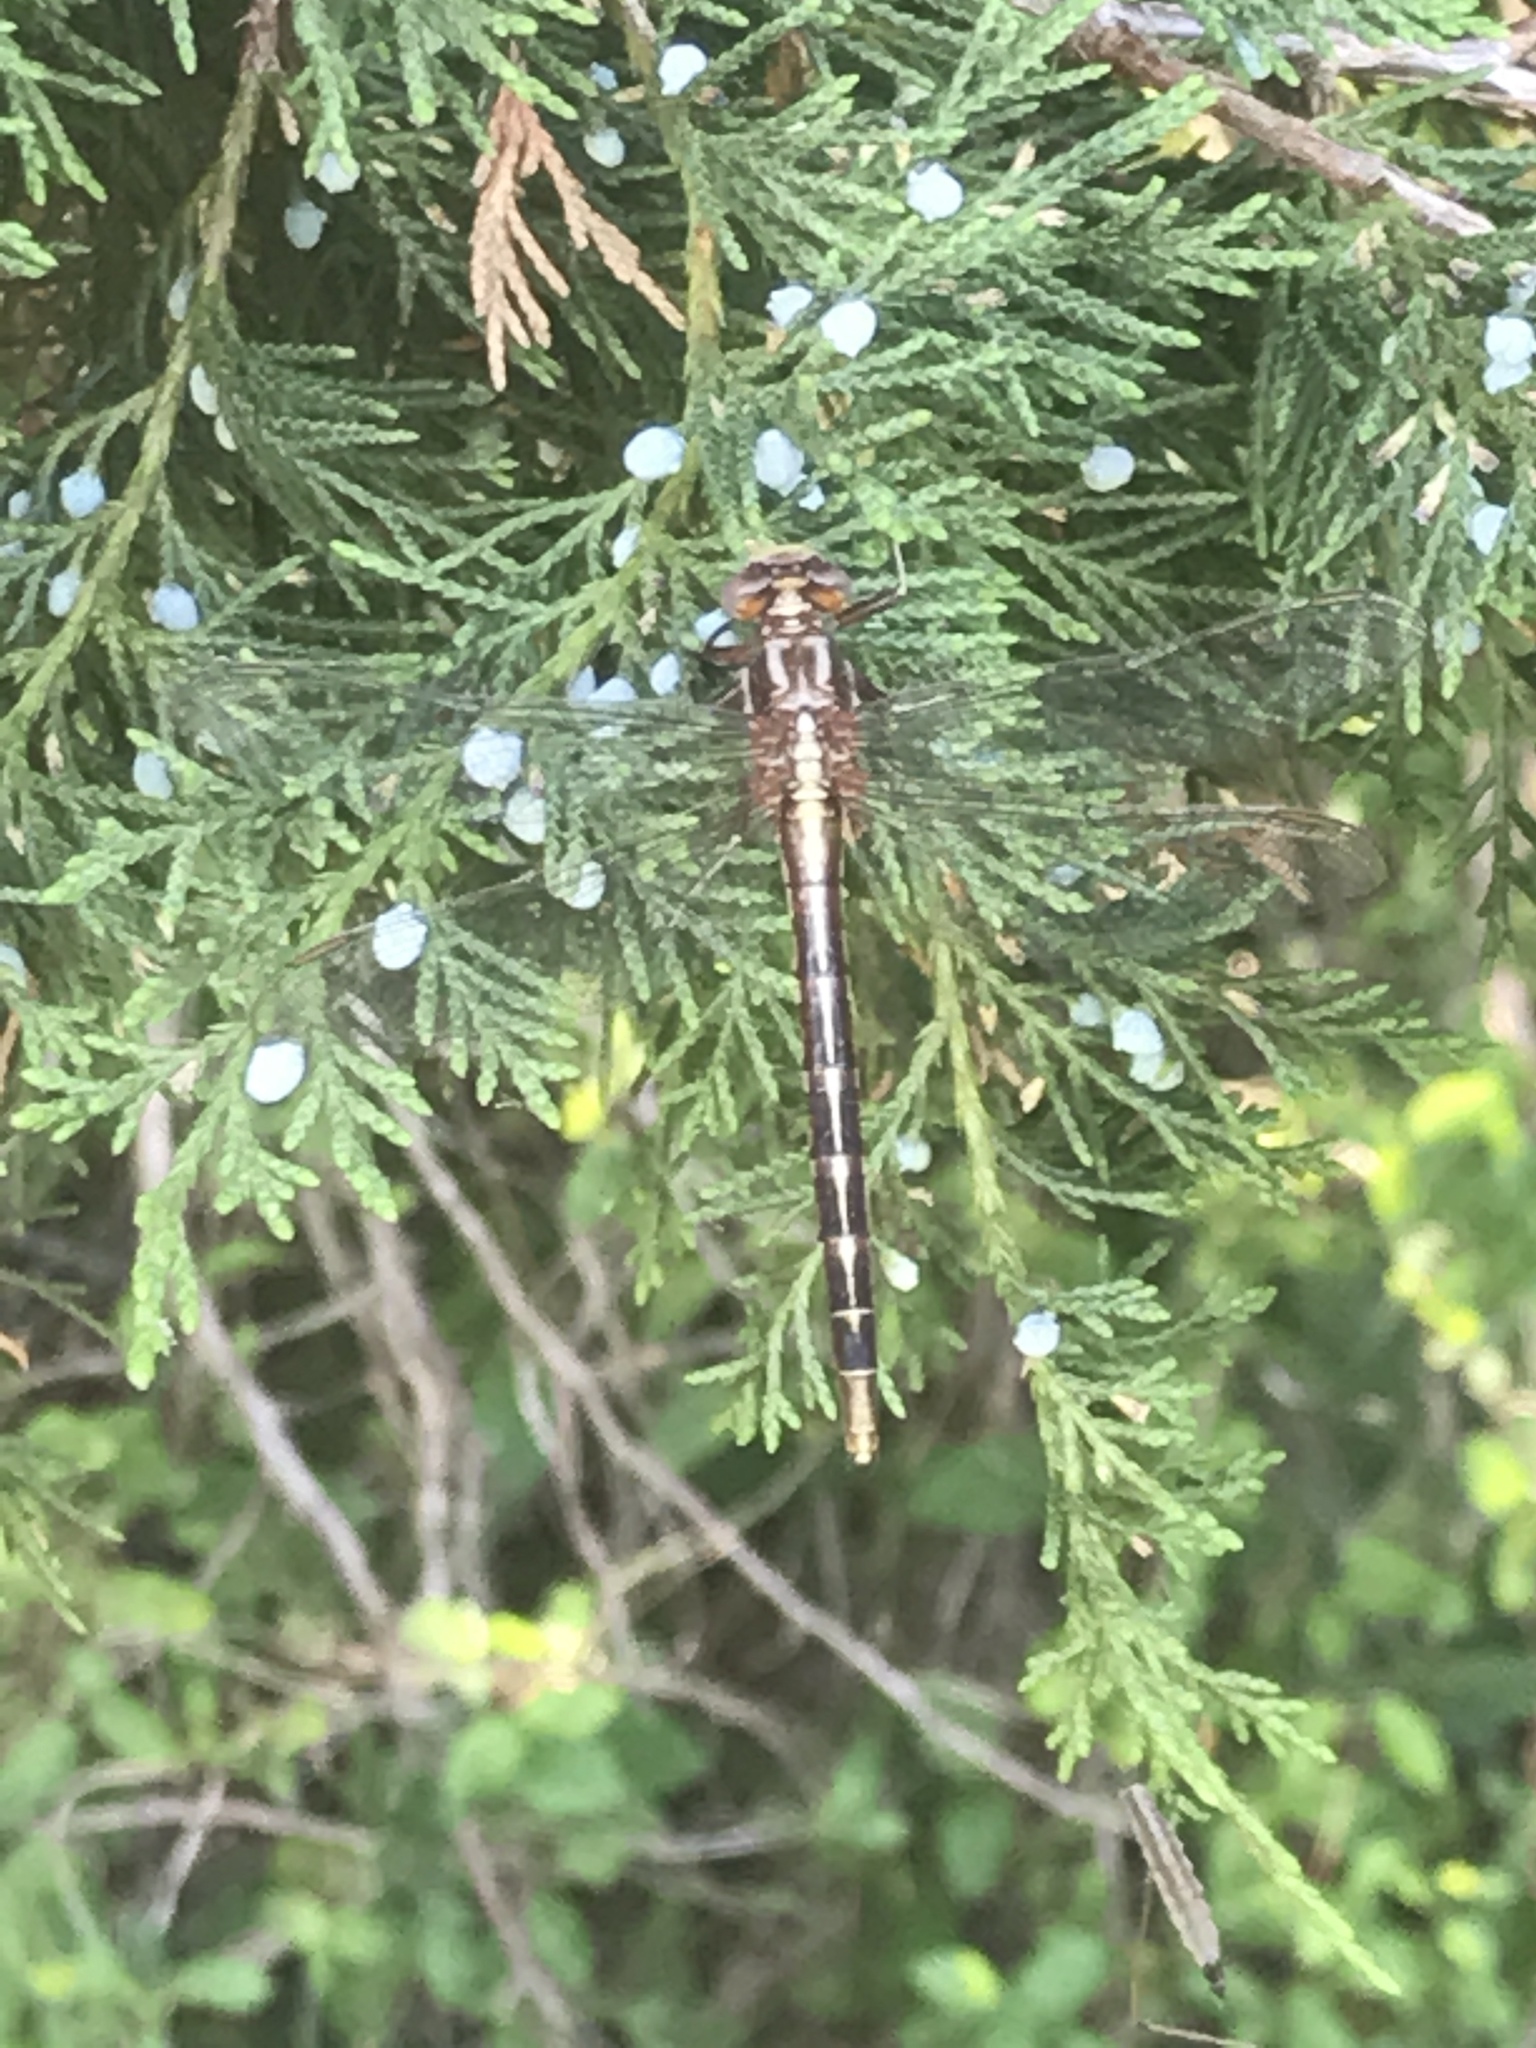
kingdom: Animalia
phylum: Arthropoda
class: Insecta
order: Odonata
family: Gomphidae
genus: Phanogomphus
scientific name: Phanogomphus exilis
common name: Lancet clubtail
